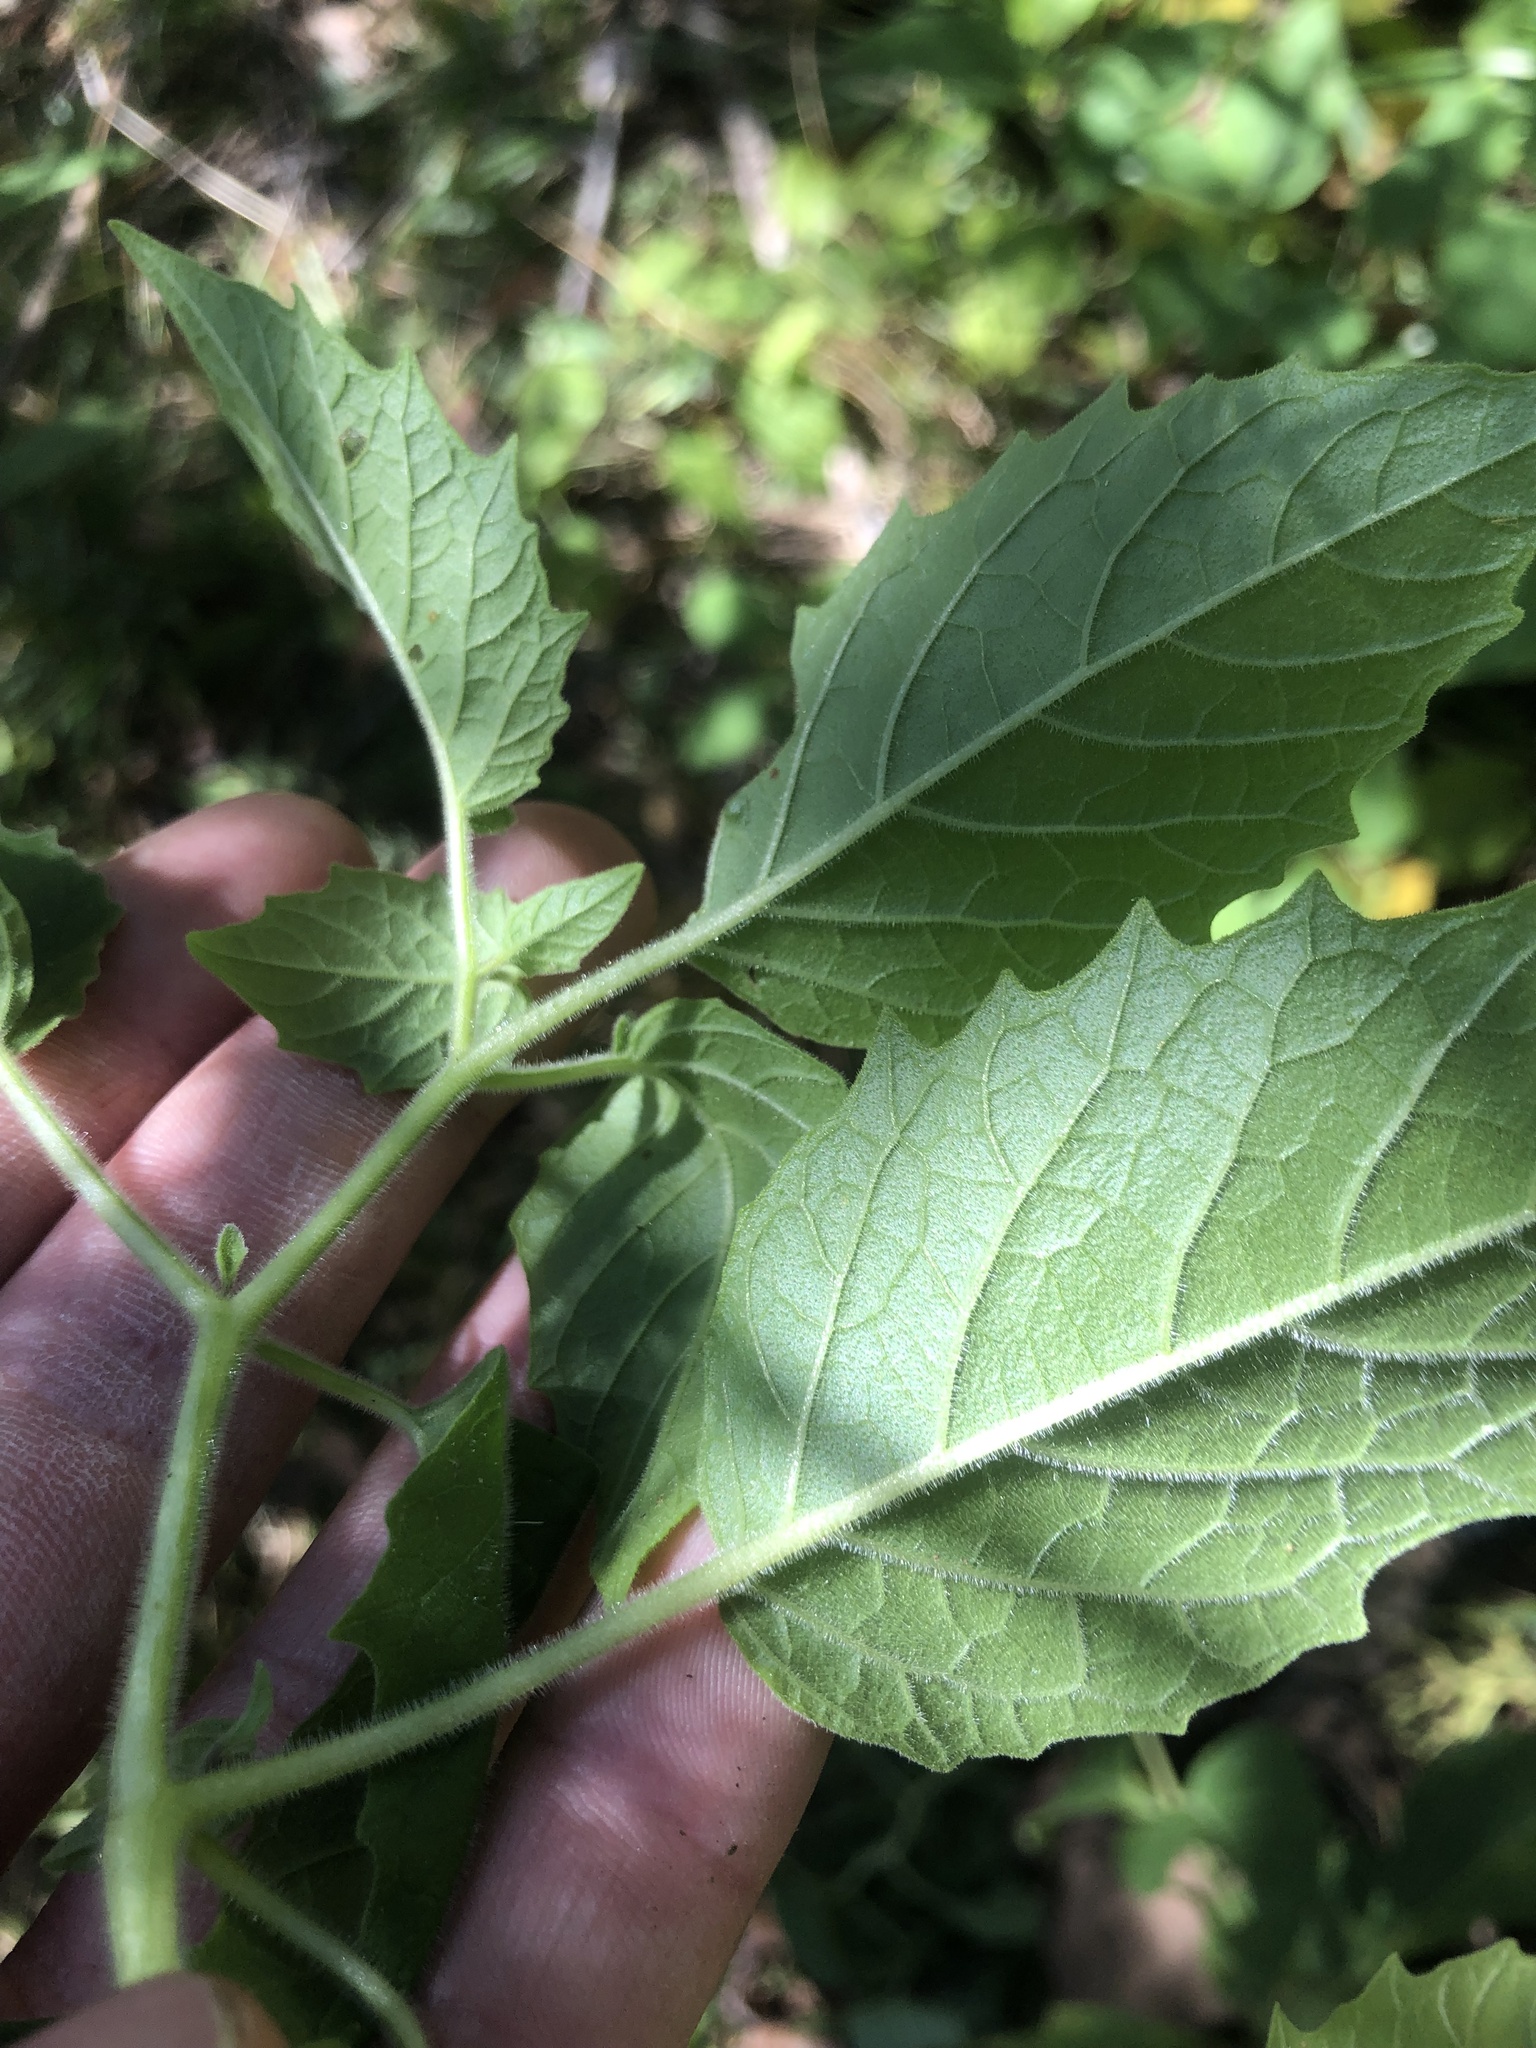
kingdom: Plantae
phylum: Tracheophyta
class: Magnoliopsida
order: Solanales
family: Solanaceae
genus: Physalis
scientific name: Physalis heterophylla
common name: Clammy ground-cherry
